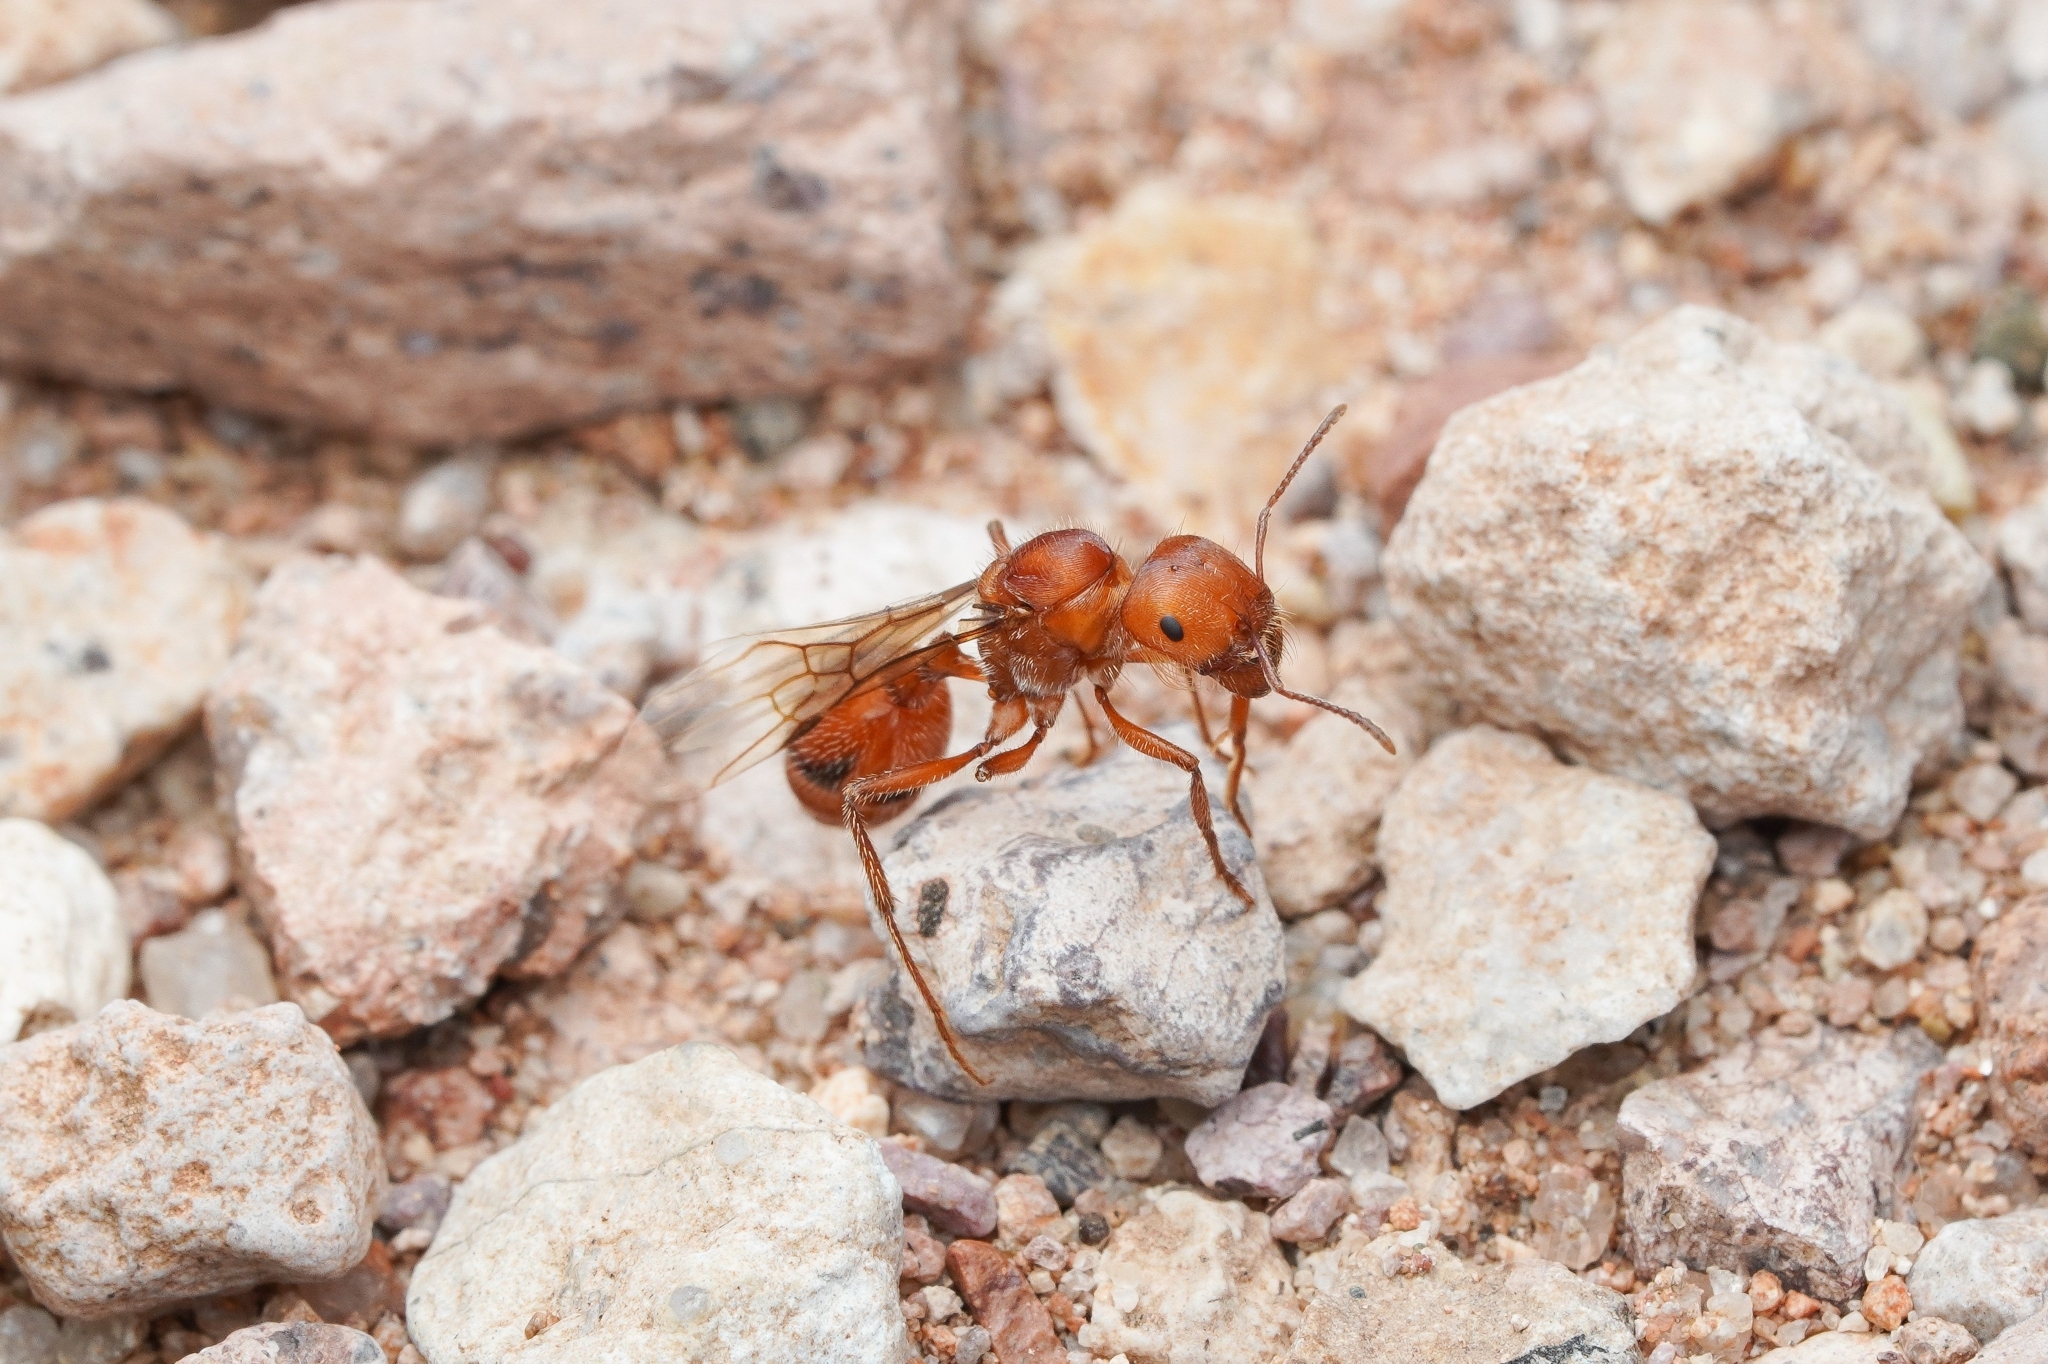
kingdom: Animalia
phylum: Arthropoda
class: Insecta
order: Hymenoptera
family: Formicidae
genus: Pogonomyrmex
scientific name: Pogonomyrmex maricopa
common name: Maricopa harvester ant
